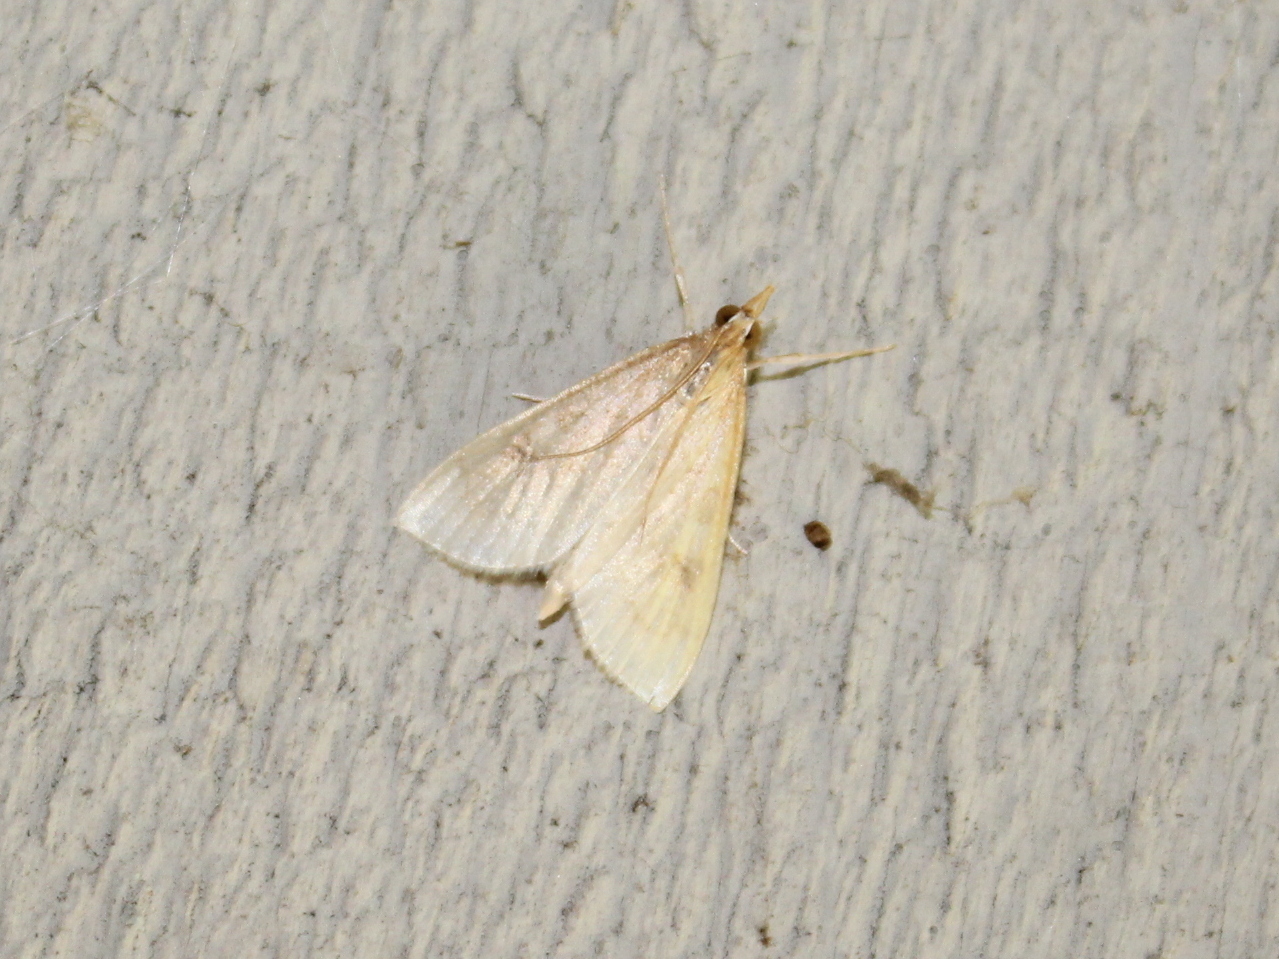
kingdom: Animalia
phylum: Arthropoda
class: Insecta
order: Lepidoptera
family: Crambidae
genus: Sitochroa
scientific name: Sitochroa palealis
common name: Greenish-yellow sitochroa moth
